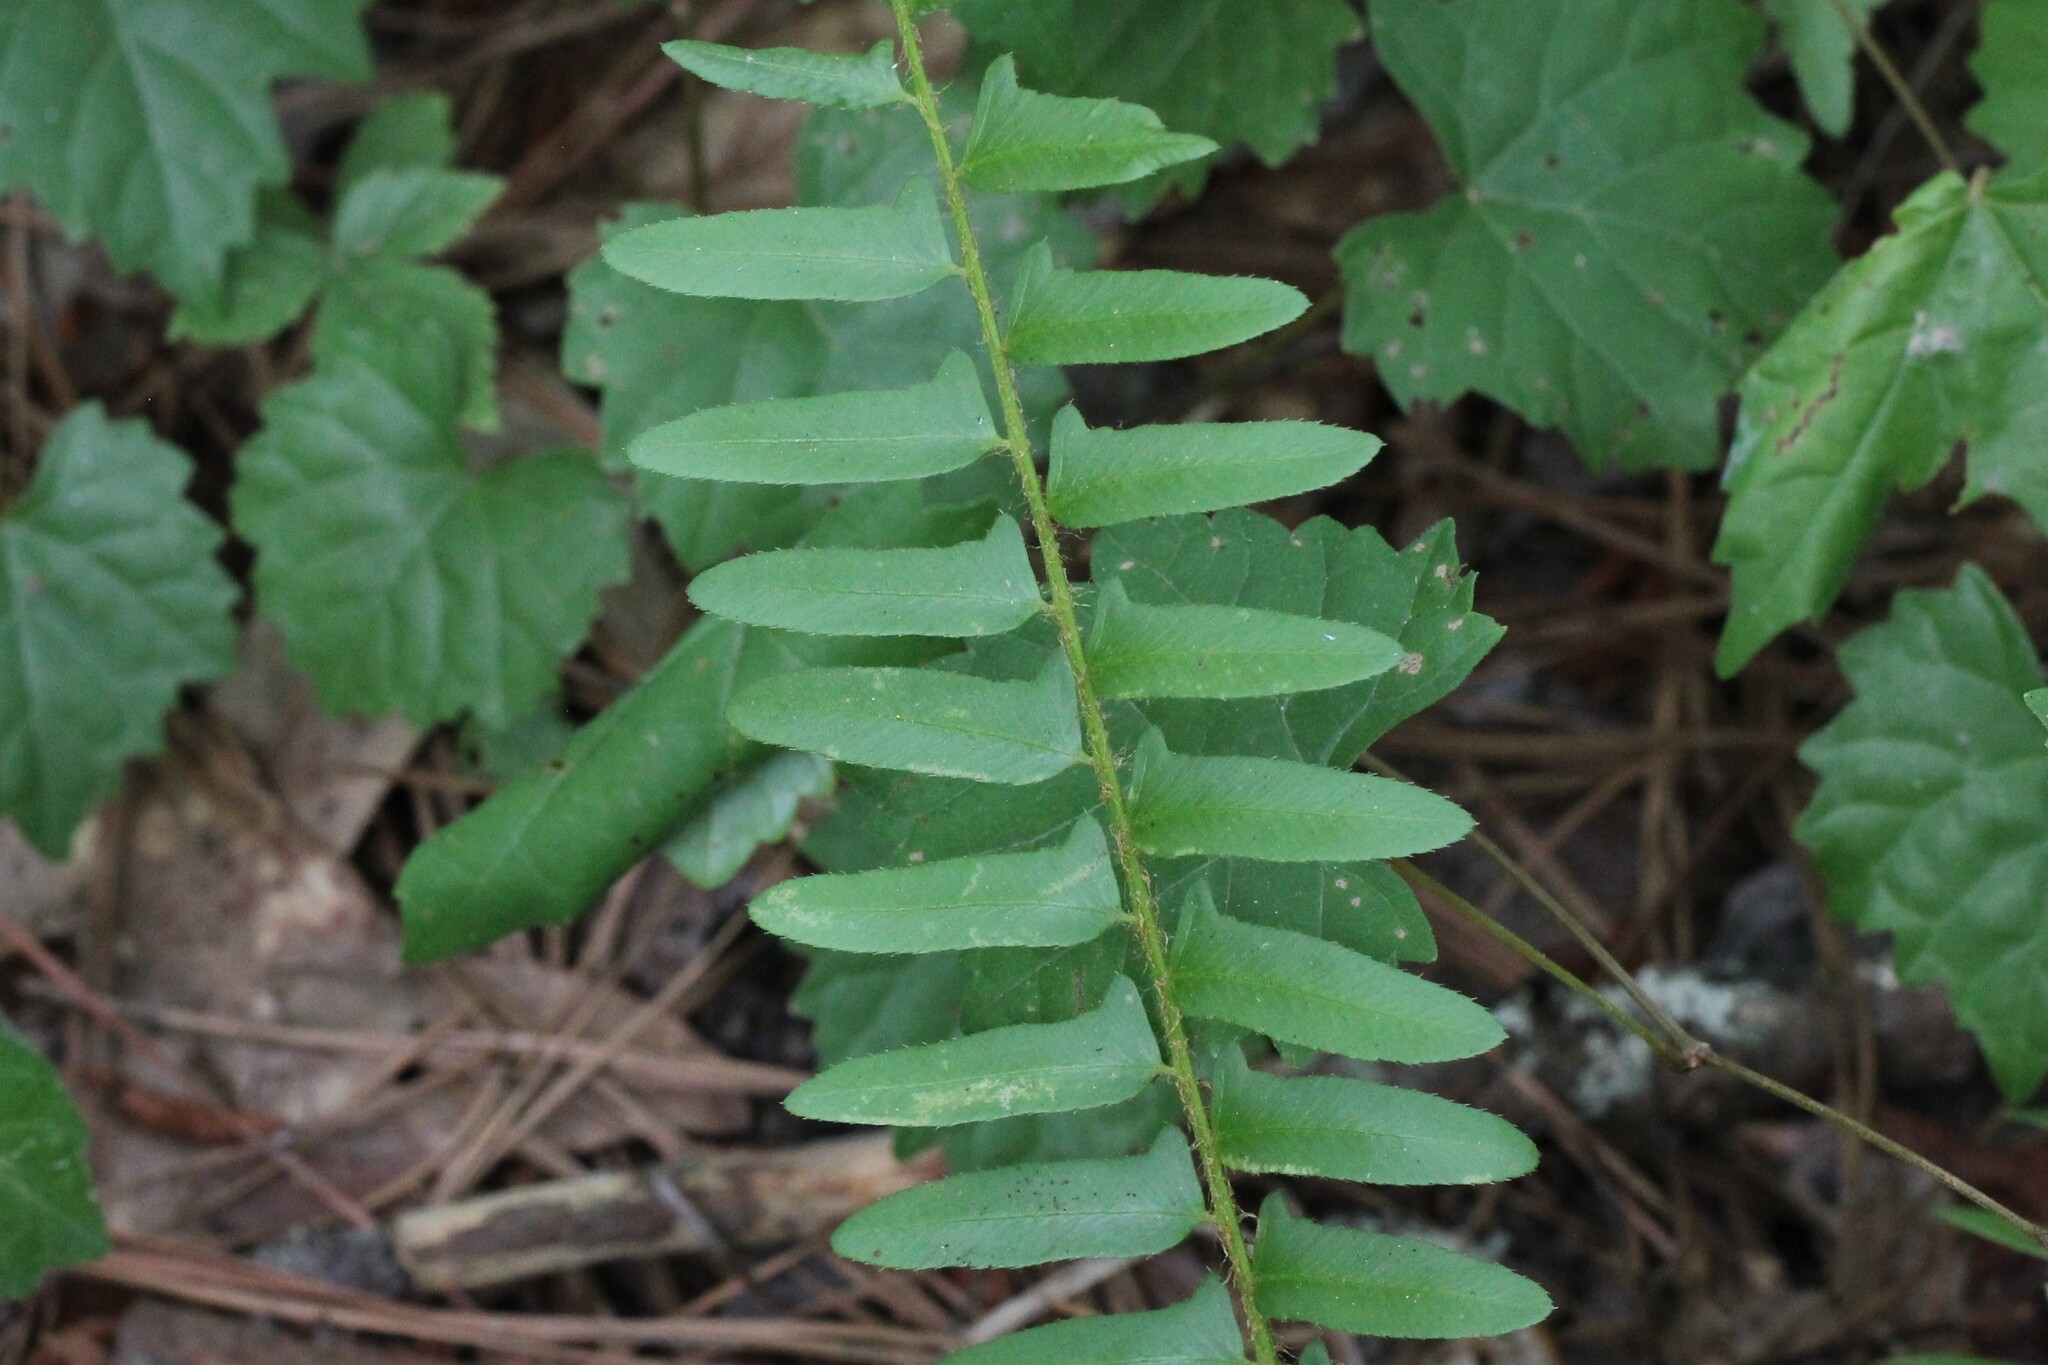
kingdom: Plantae
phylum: Tracheophyta
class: Polypodiopsida
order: Polypodiales
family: Dryopteridaceae
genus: Polystichum
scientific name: Polystichum acrostichoides
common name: Christmas fern
